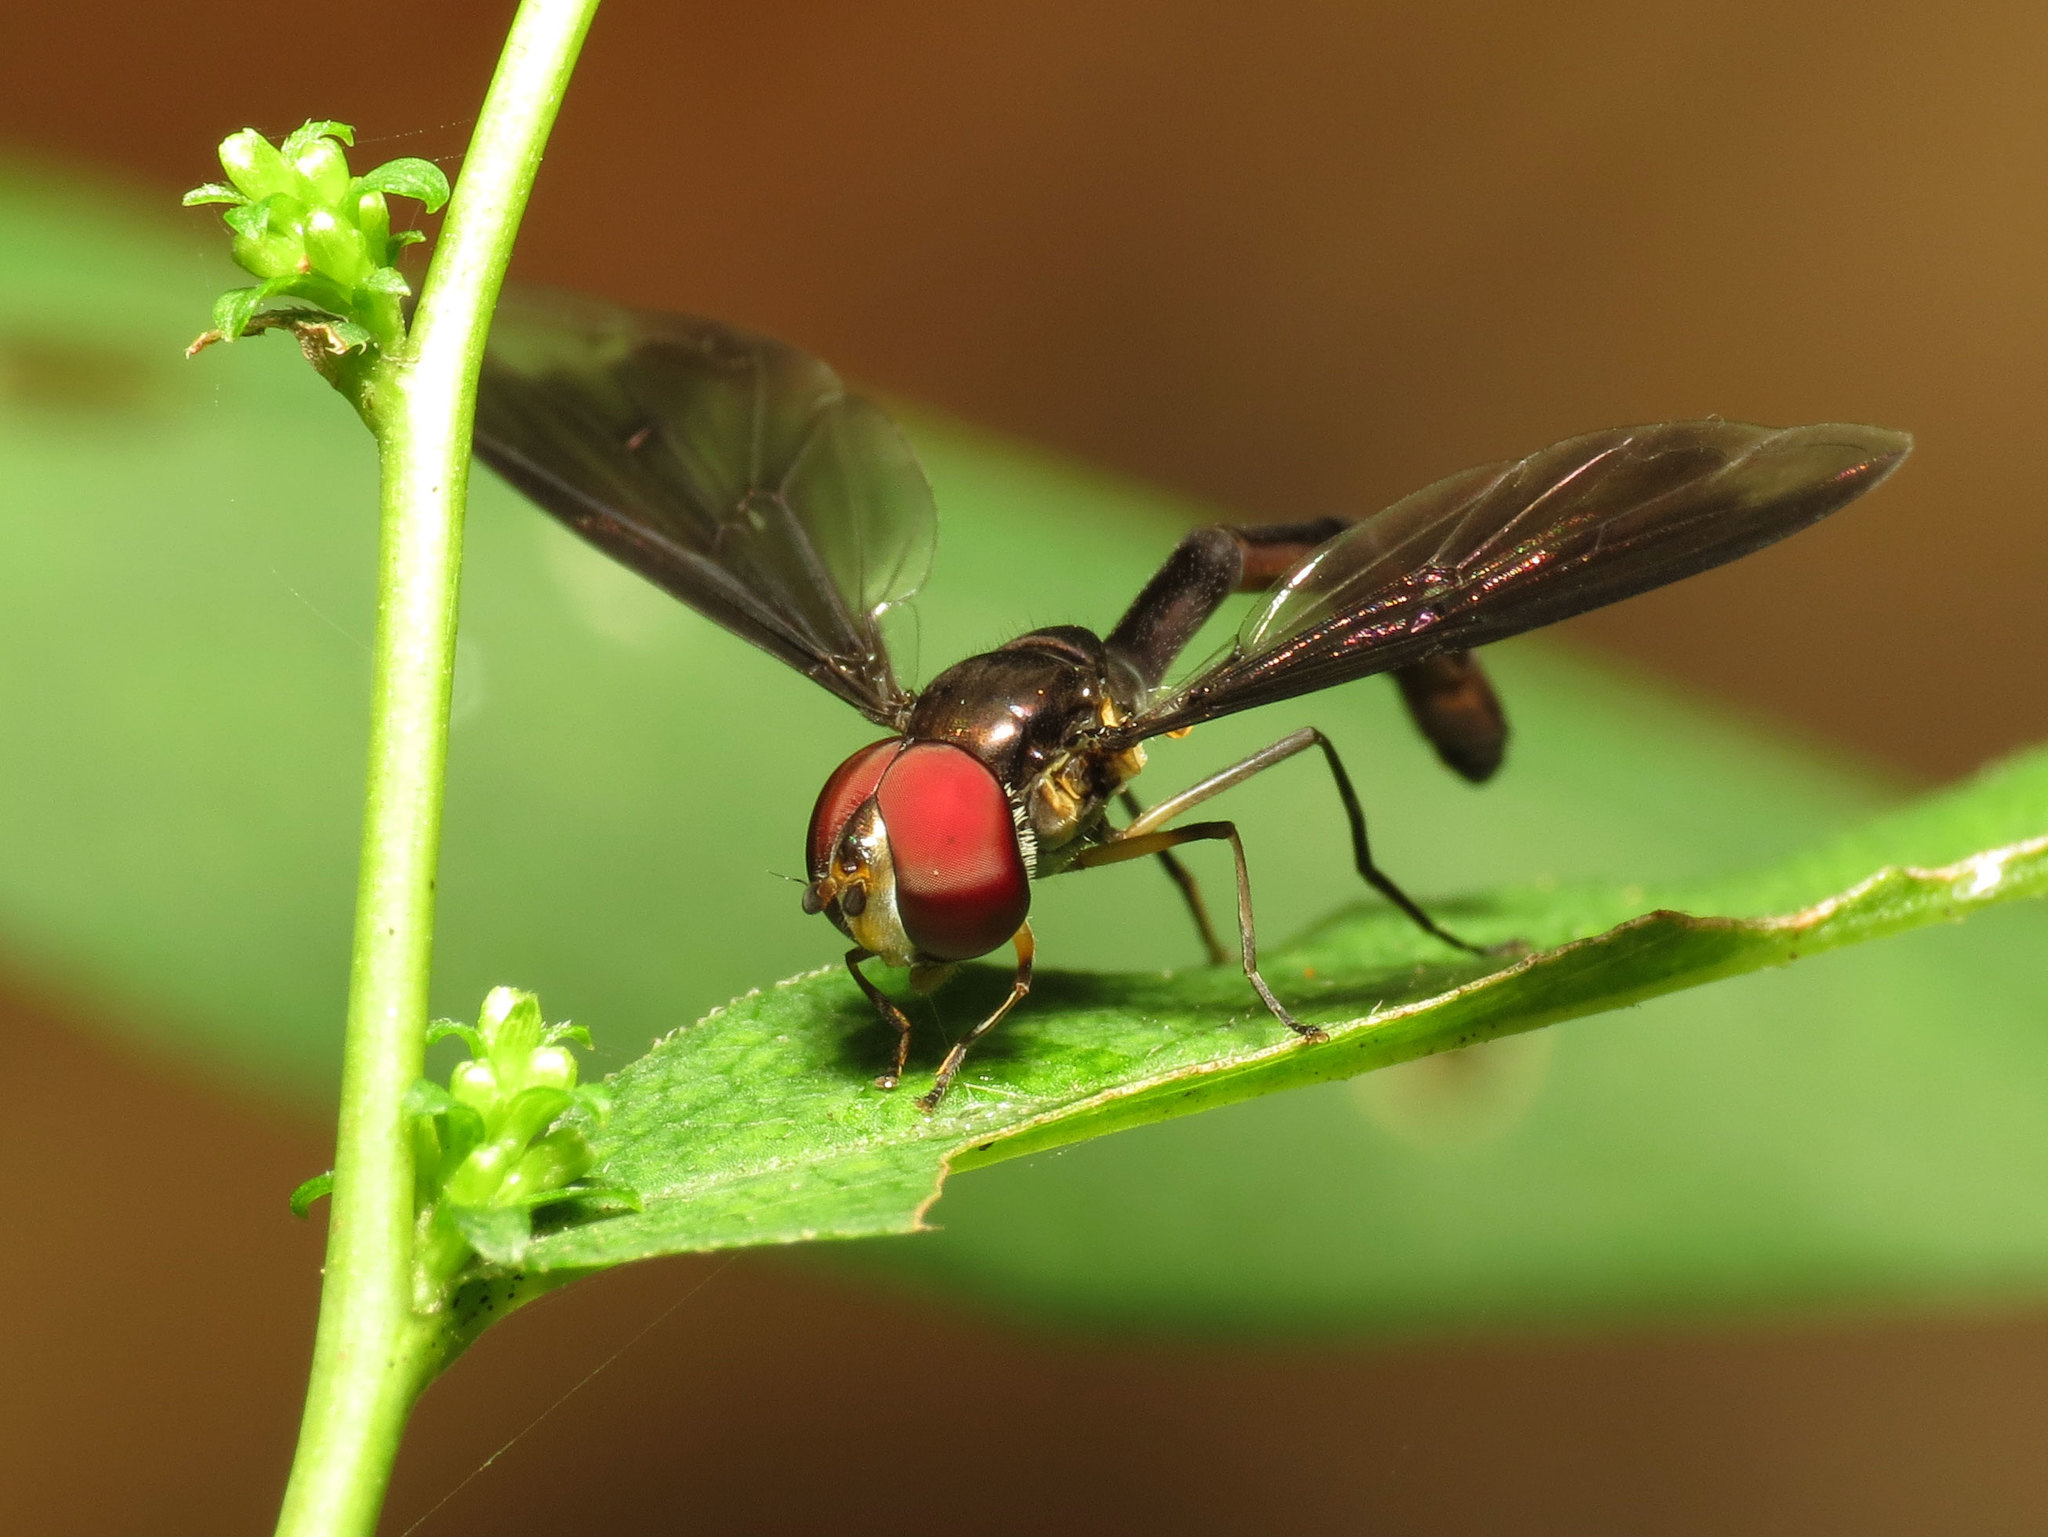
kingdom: Animalia
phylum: Arthropoda
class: Insecta
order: Diptera
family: Syrphidae
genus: Ocyptamus
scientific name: Ocyptamus fuscipennis
